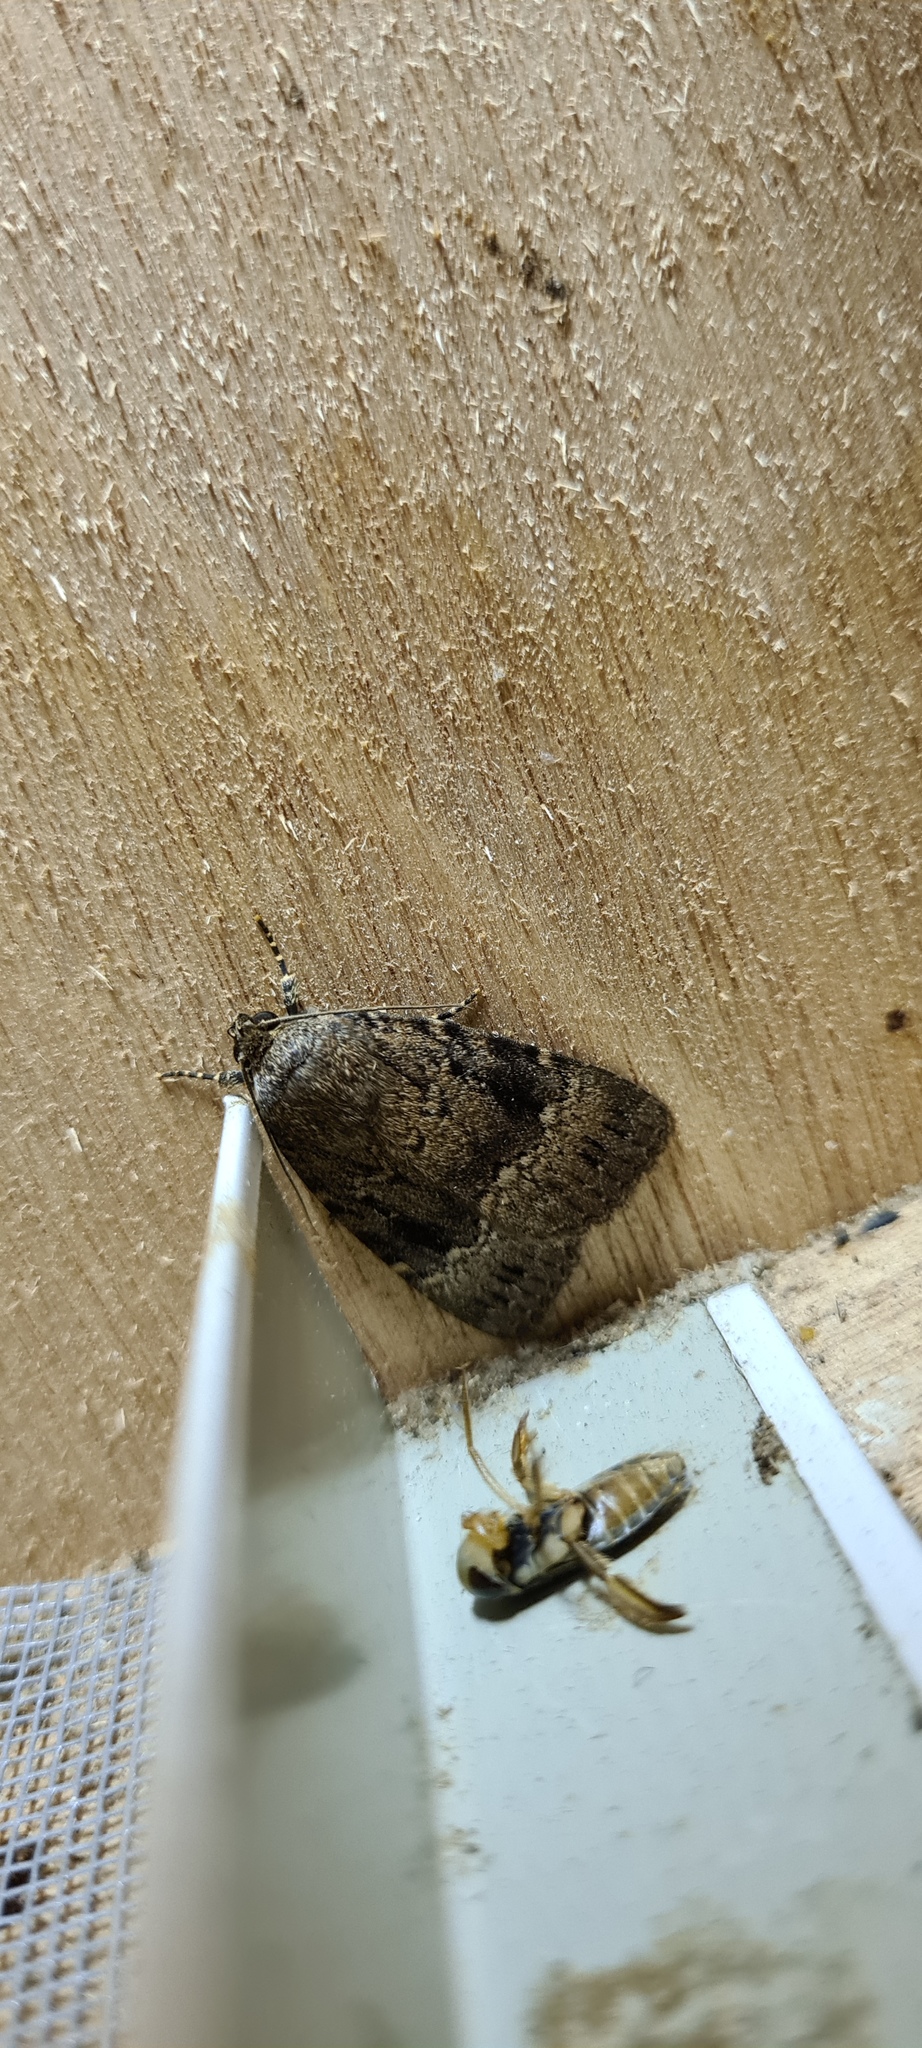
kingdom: Animalia
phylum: Arthropoda
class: Insecta
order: Lepidoptera
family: Noctuidae
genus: Amphipyra
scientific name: Amphipyra pyramidea
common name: Copper underwing
